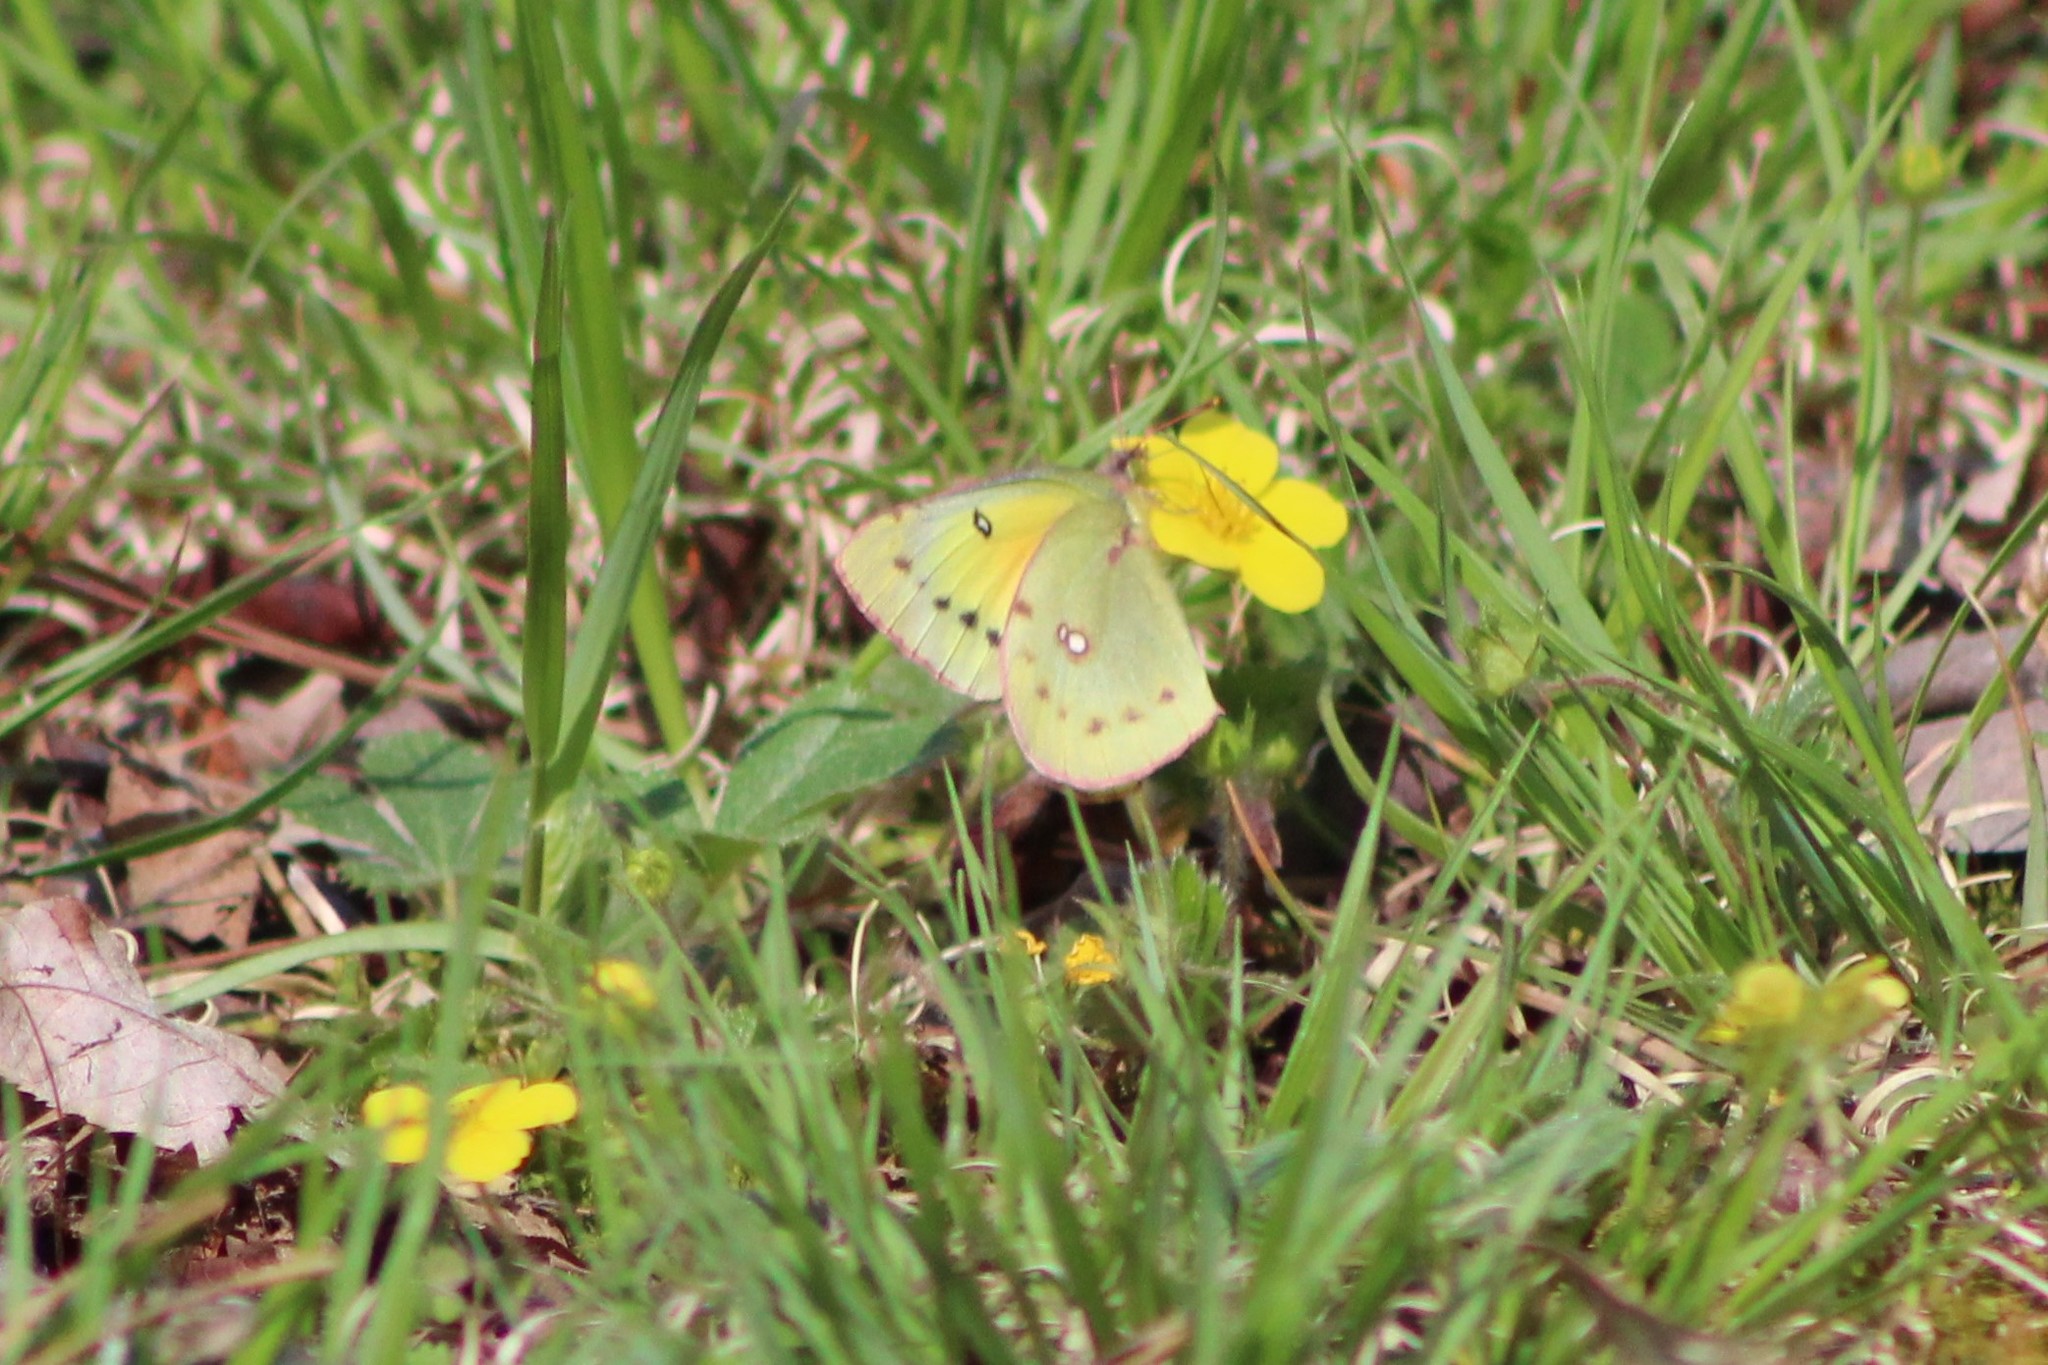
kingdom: Animalia
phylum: Arthropoda
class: Insecta
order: Lepidoptera
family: Pieridae
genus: Colias
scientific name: Colias eurytheme
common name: Alfalfa butterfly
